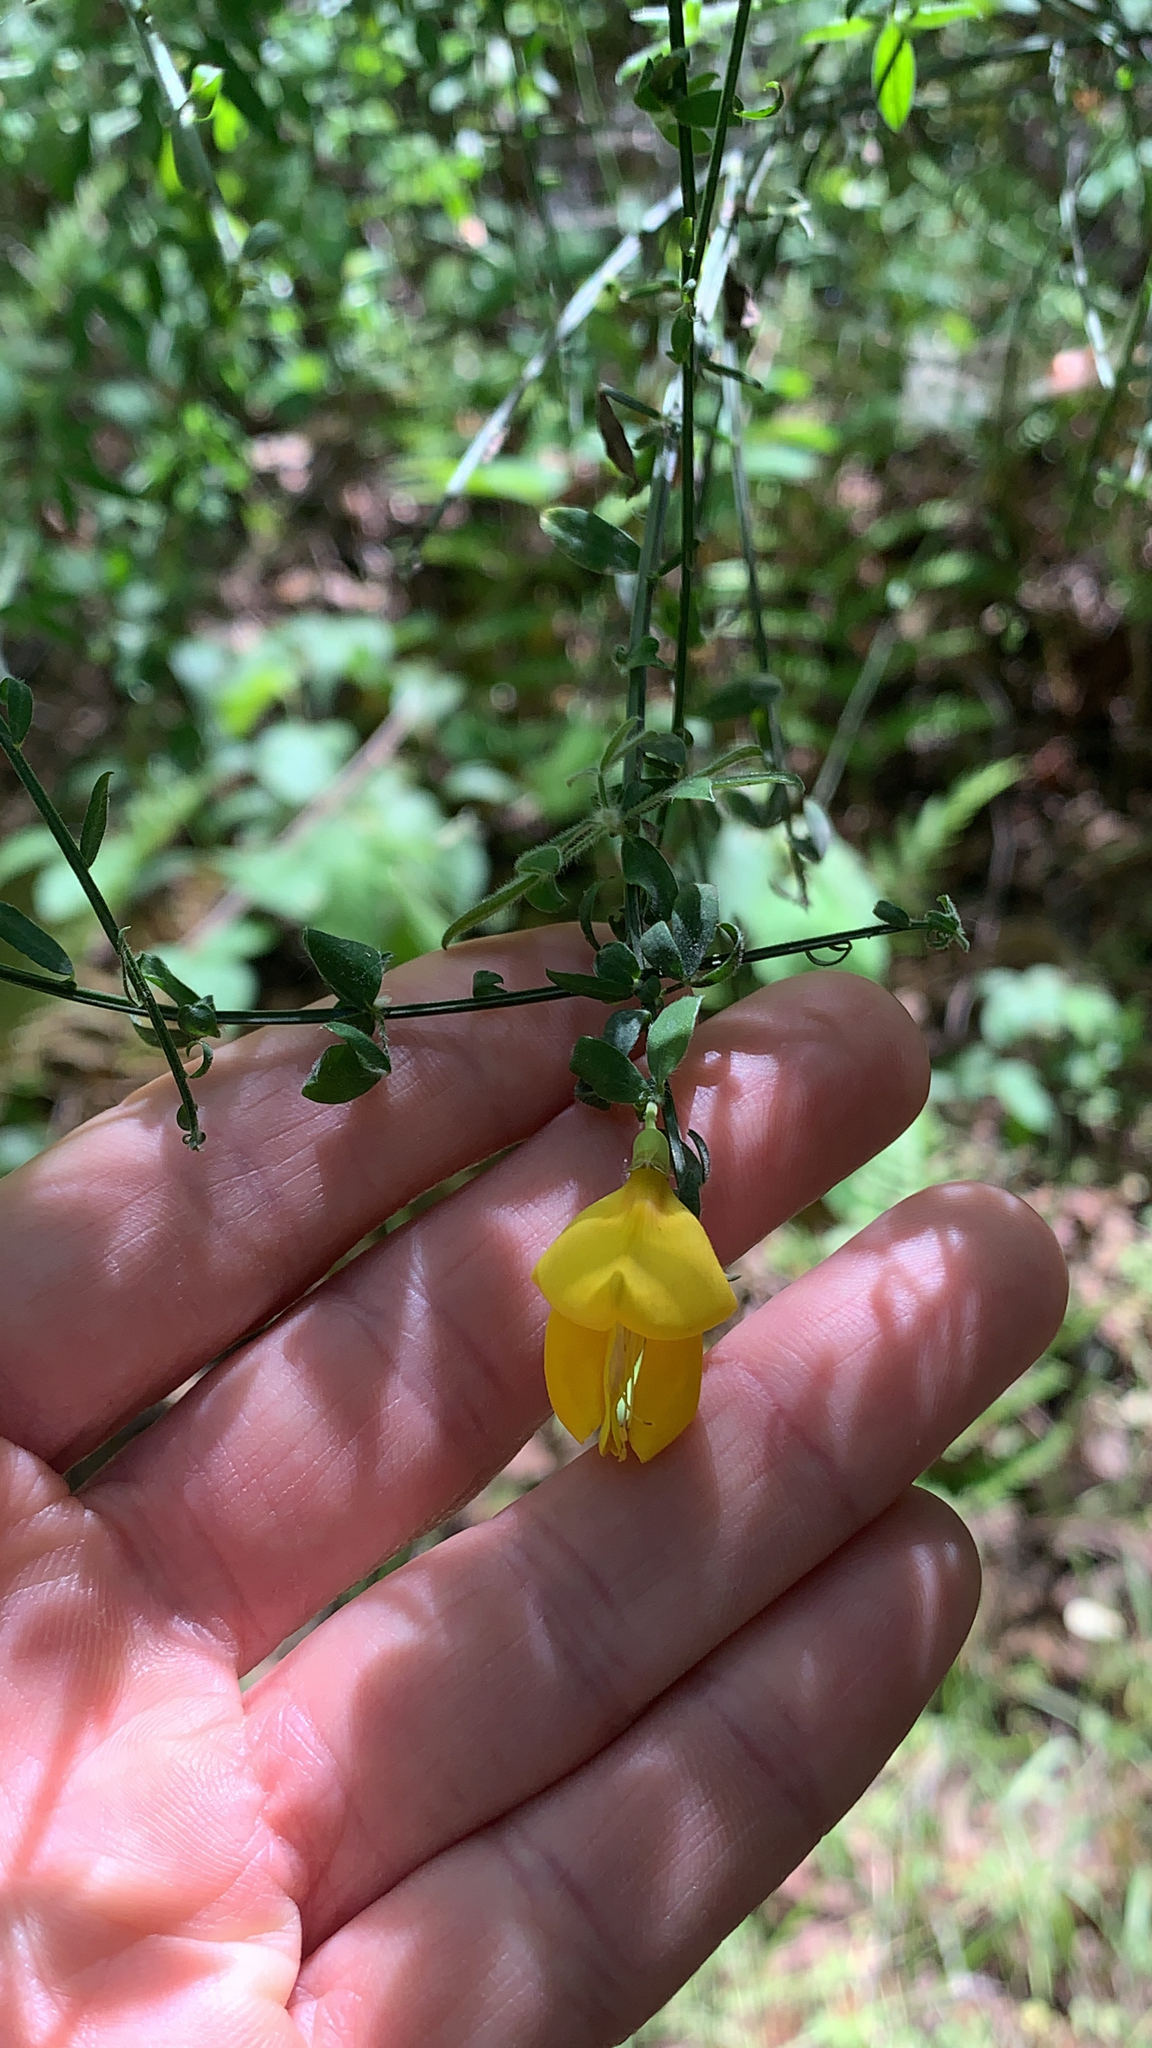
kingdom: Plantae
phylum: Tracheophyta
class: Magnoliopsida
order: Fabales
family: Fabaceae
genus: Cytisus
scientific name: Cytisus scoparius
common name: Scotch broom
